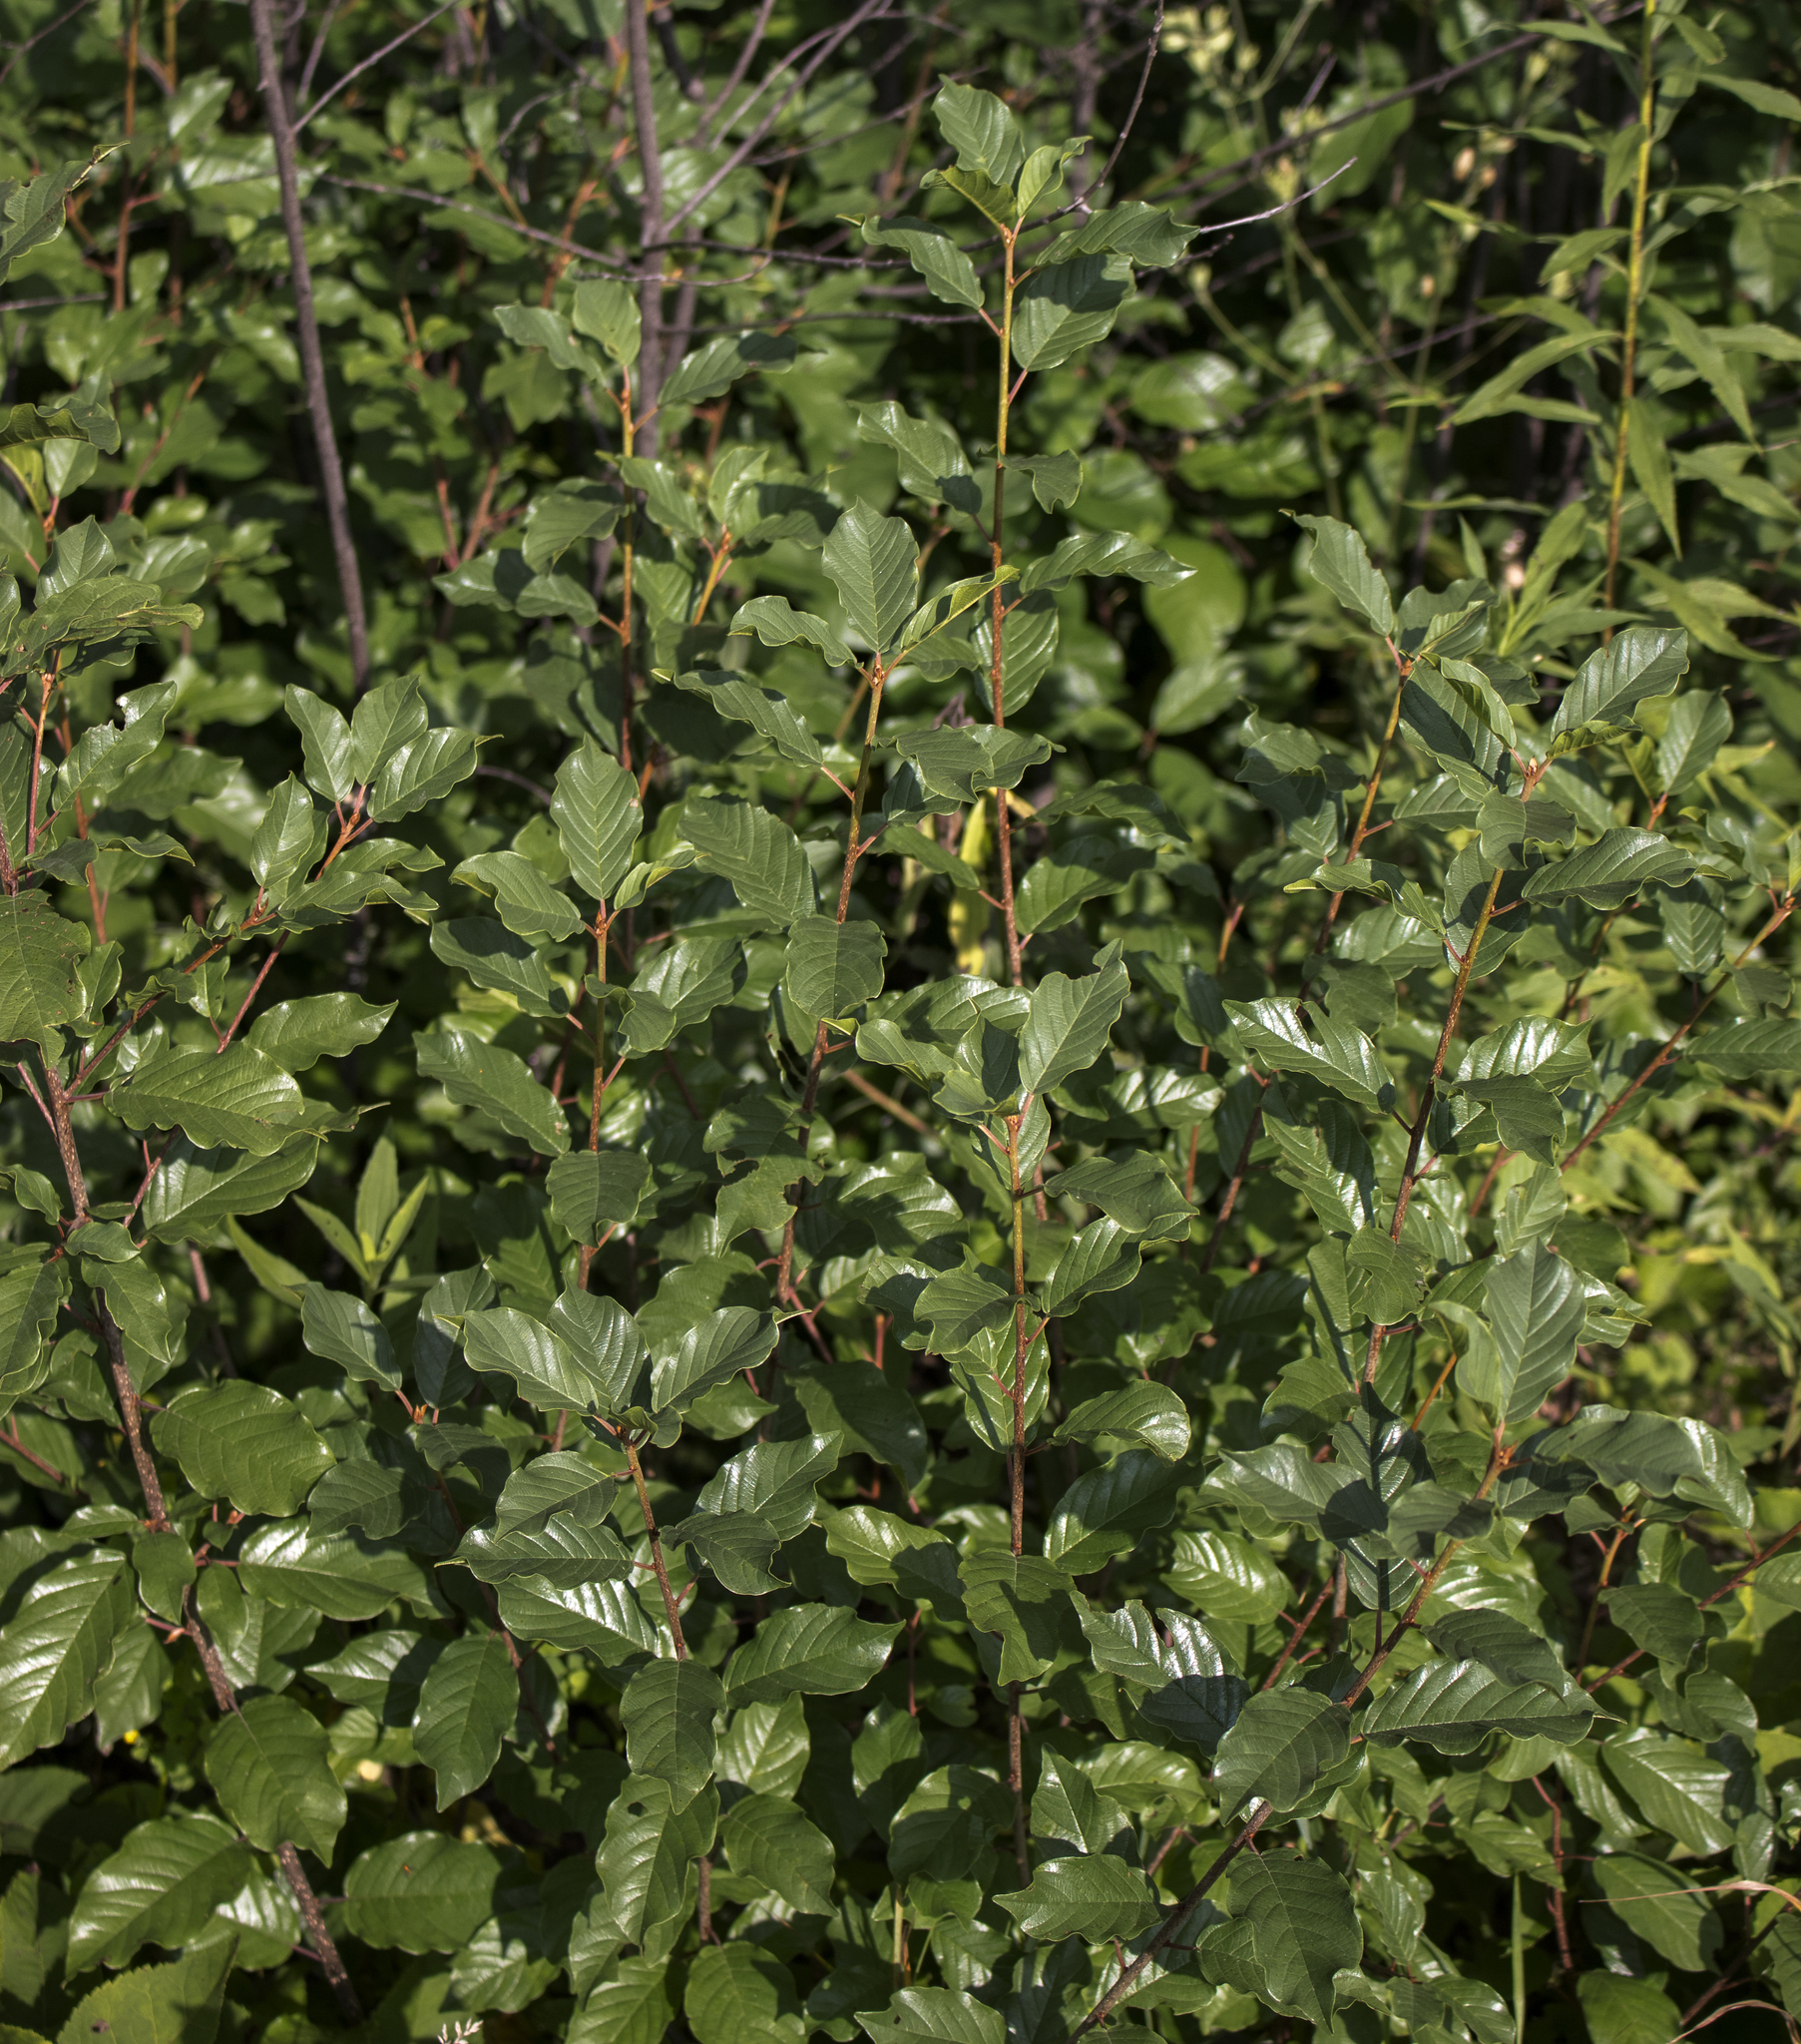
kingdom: Plantae
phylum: Tracheophyta
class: Magnoliopsida
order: Rosales
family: Rhamnaceae
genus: Frangula
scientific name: Frangula alnus
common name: Alder buckthorn
